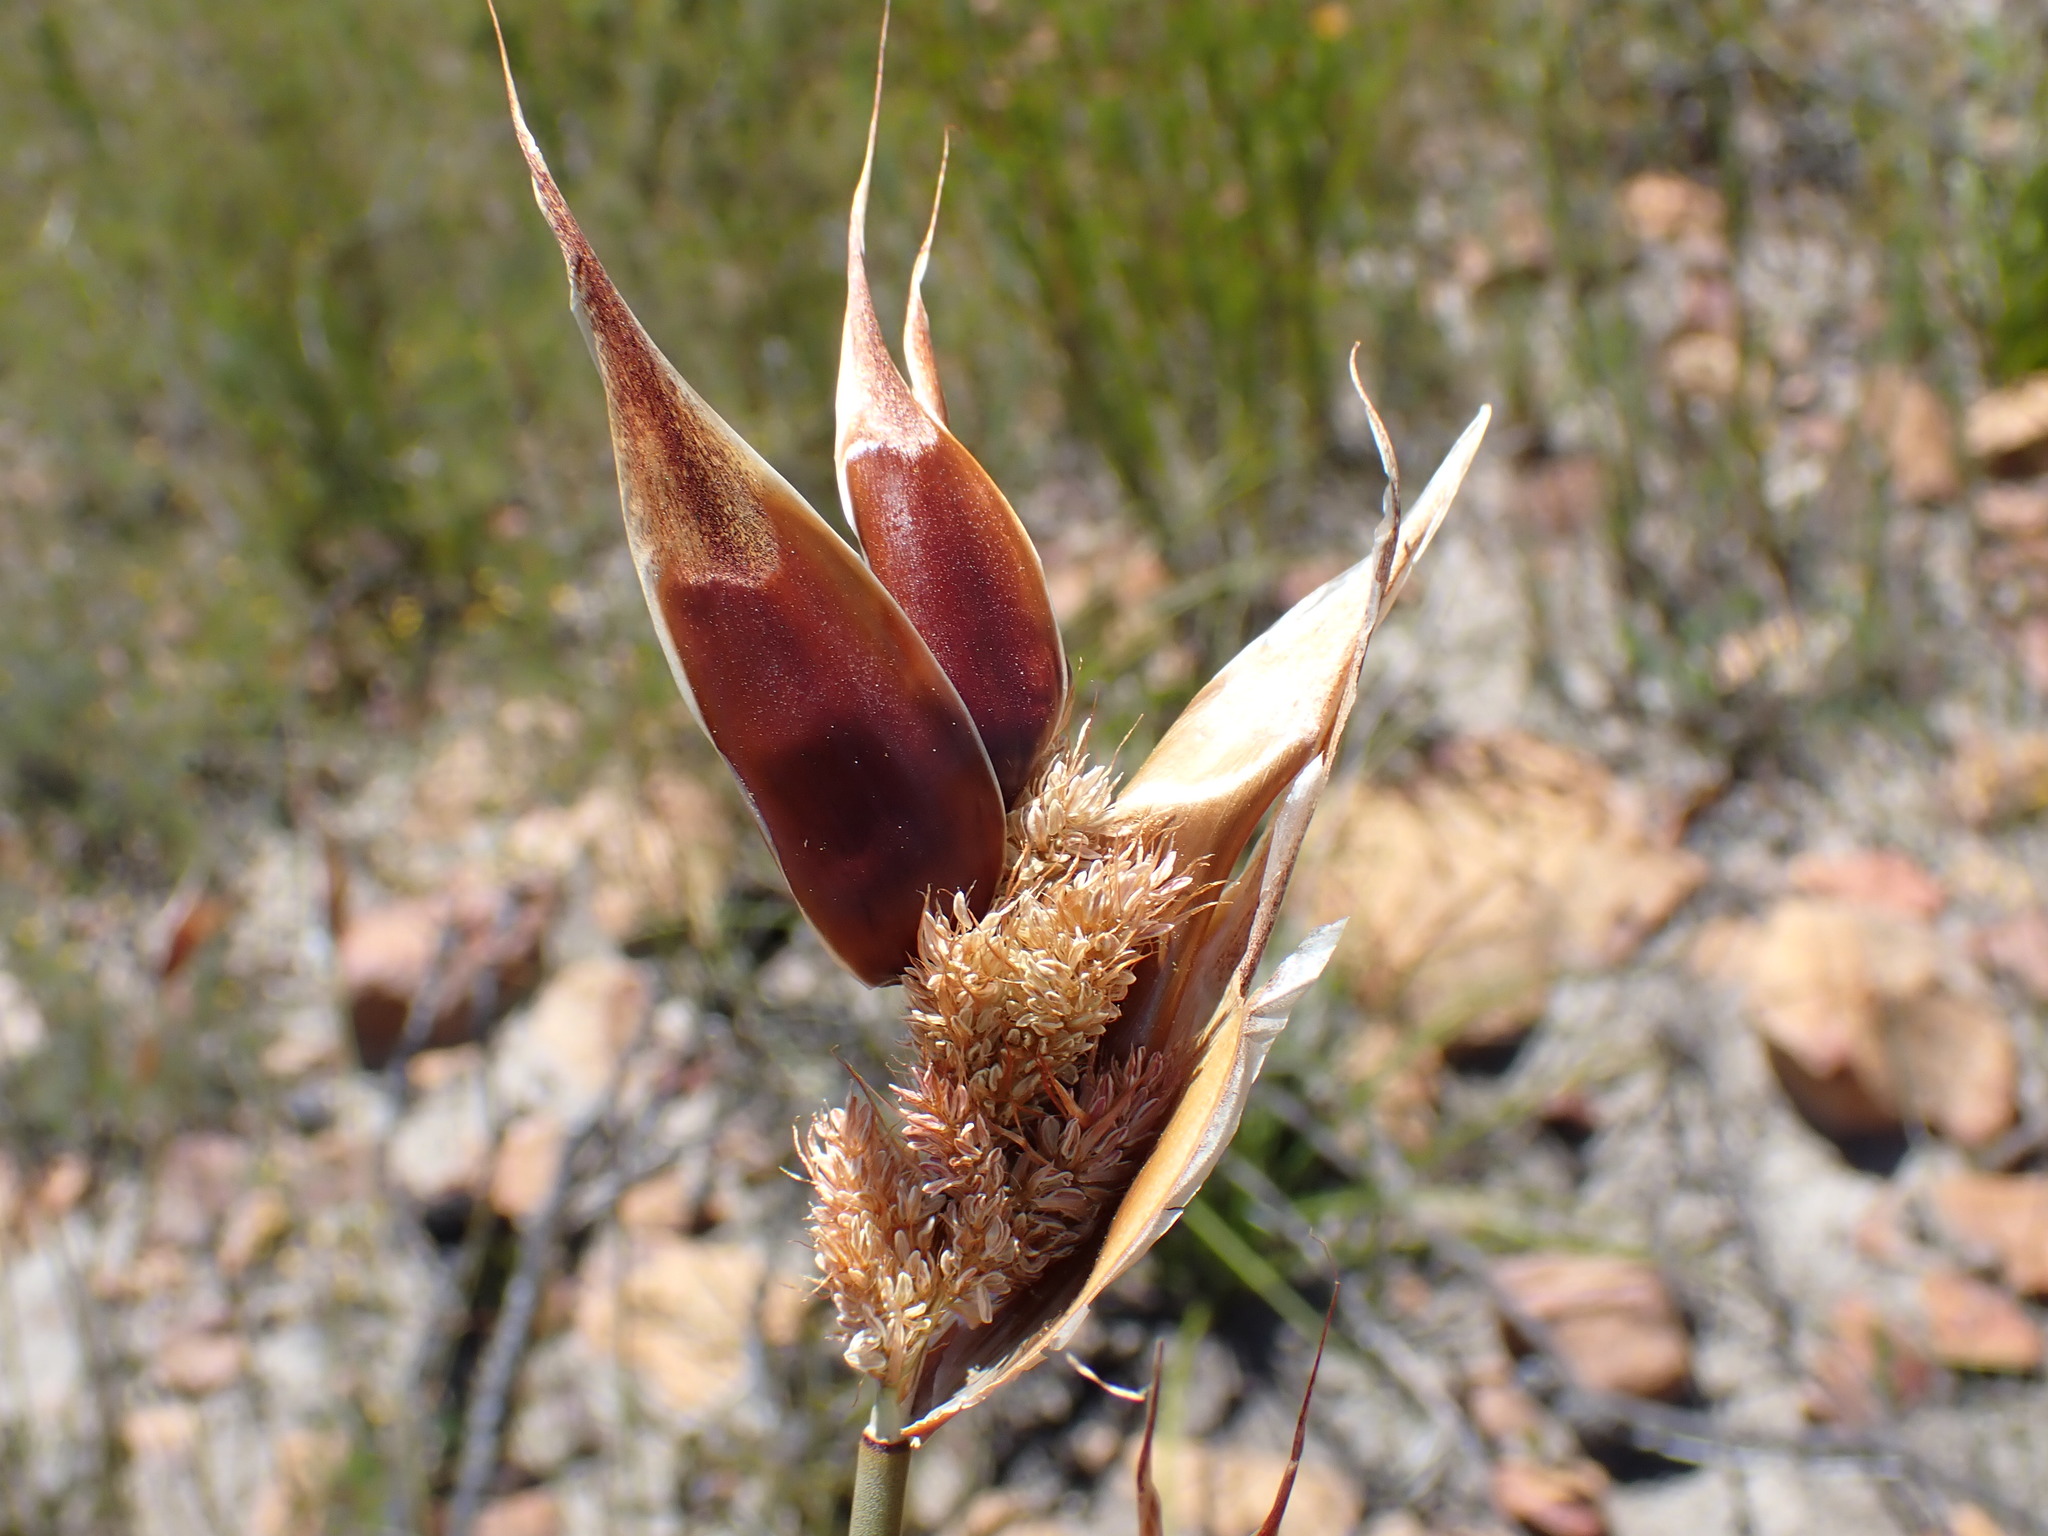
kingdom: Plantae
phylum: Tracheophyta
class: Liliopsida
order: Poales
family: Restionaceae
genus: Willdenowia
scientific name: Willdenowia teres
